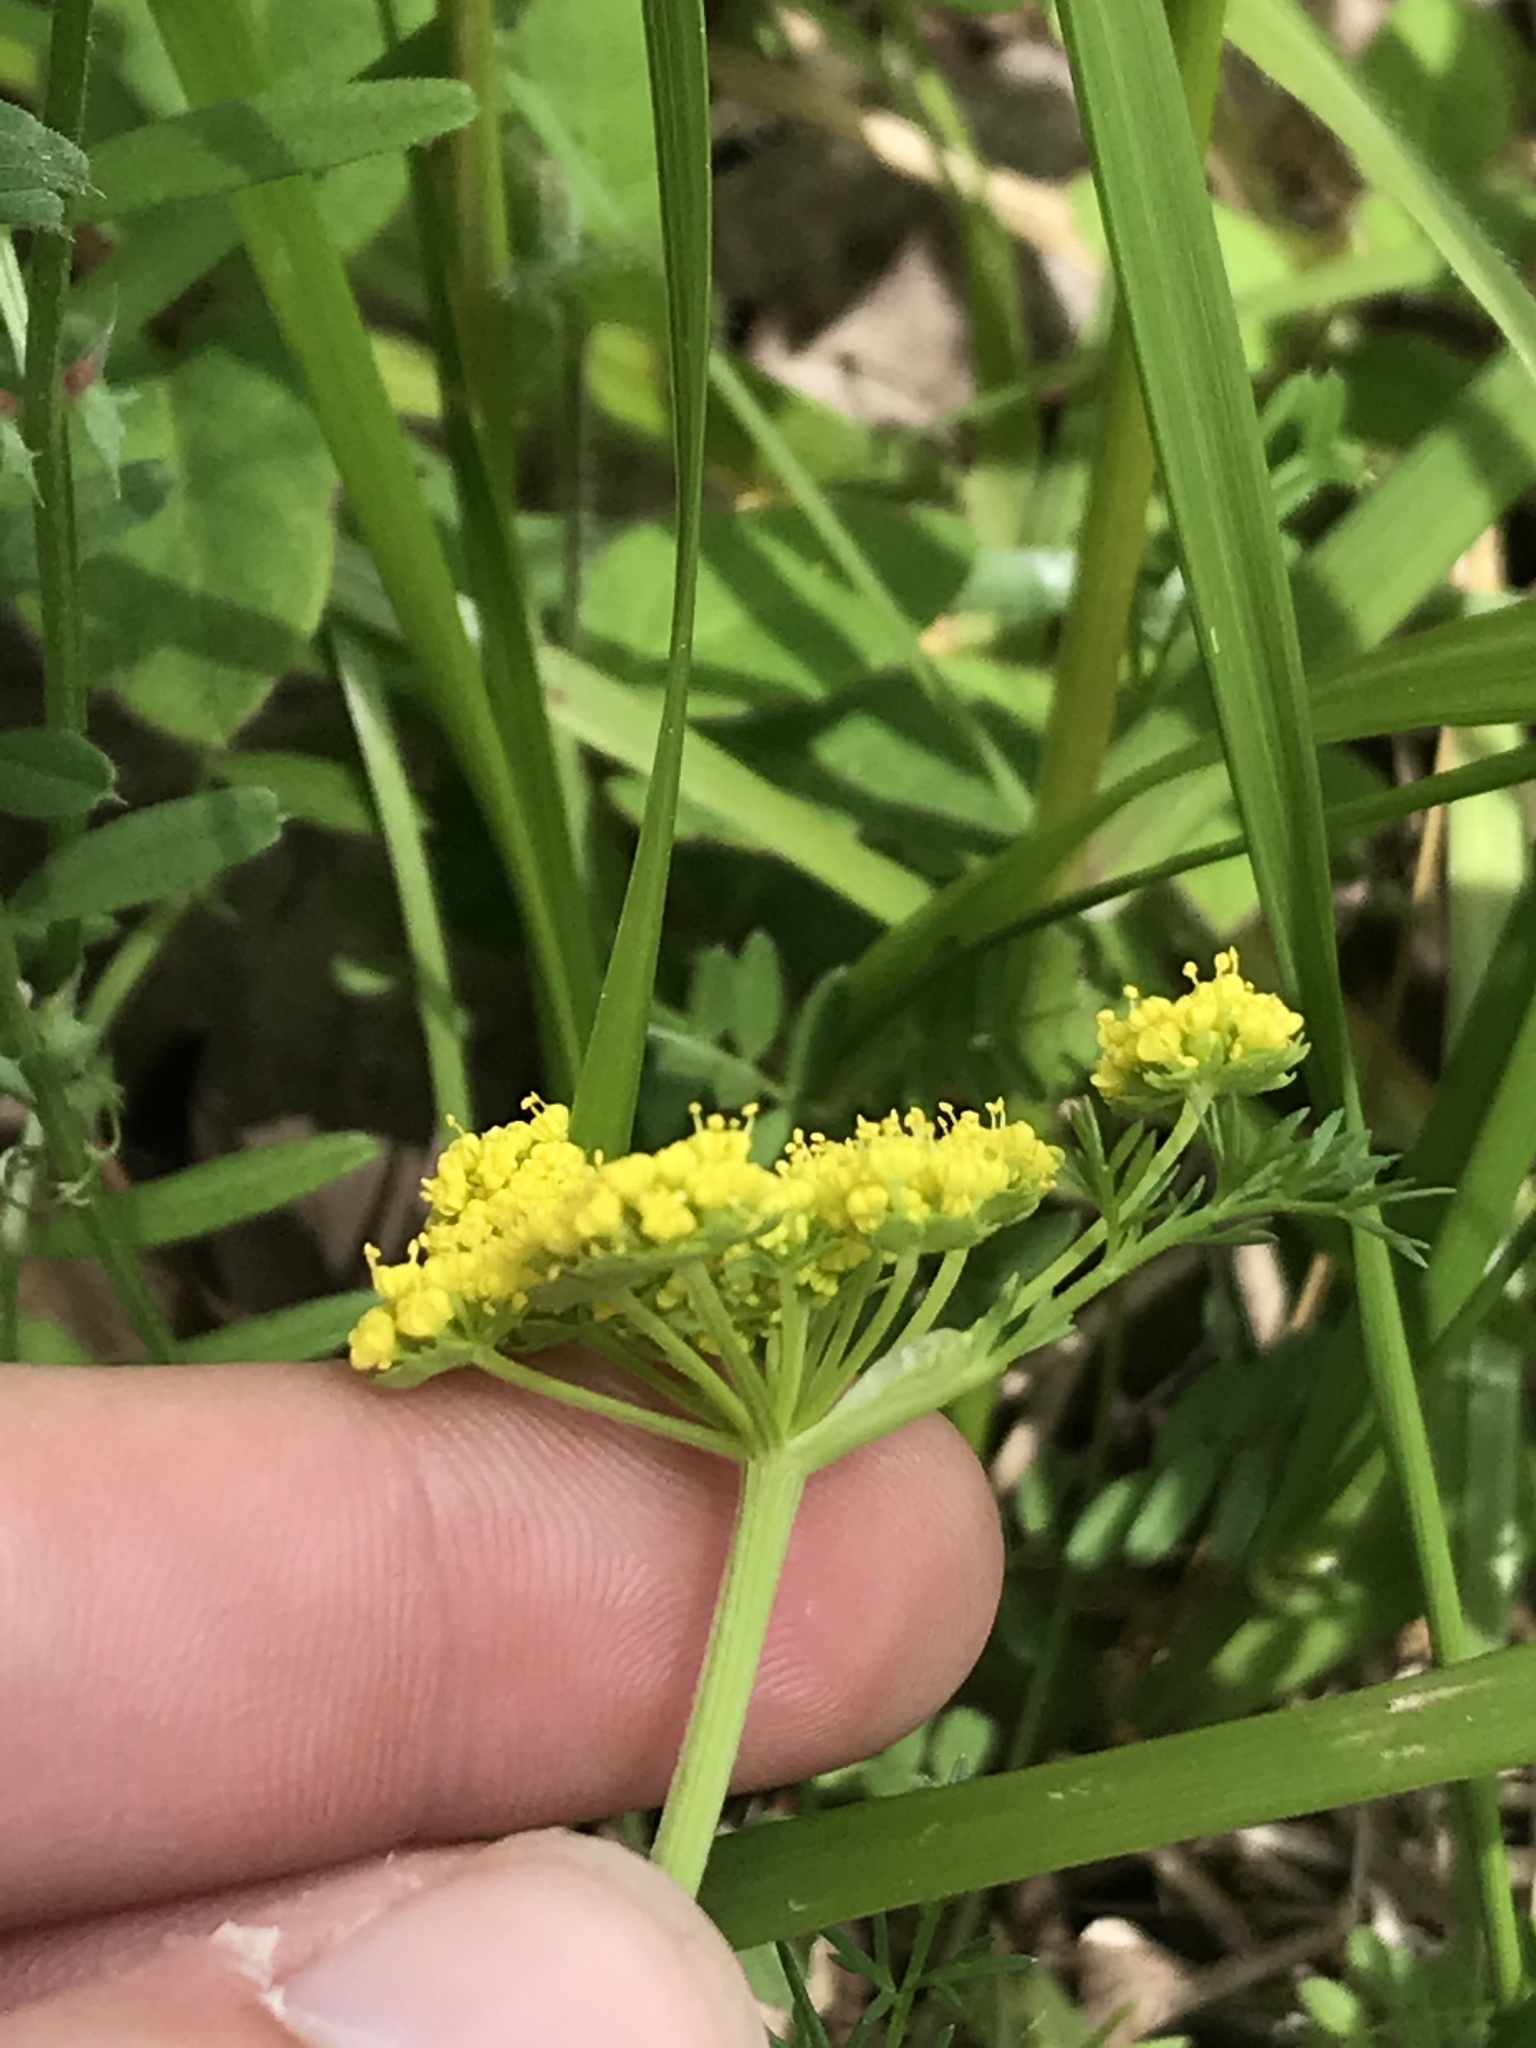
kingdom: Plantae
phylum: Tracheophyta
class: Magnoliopsida
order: Apiales
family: Apiaceae
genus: Lomatium
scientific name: Lomatium utriculatum
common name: Fine-leaf desert-parsley
